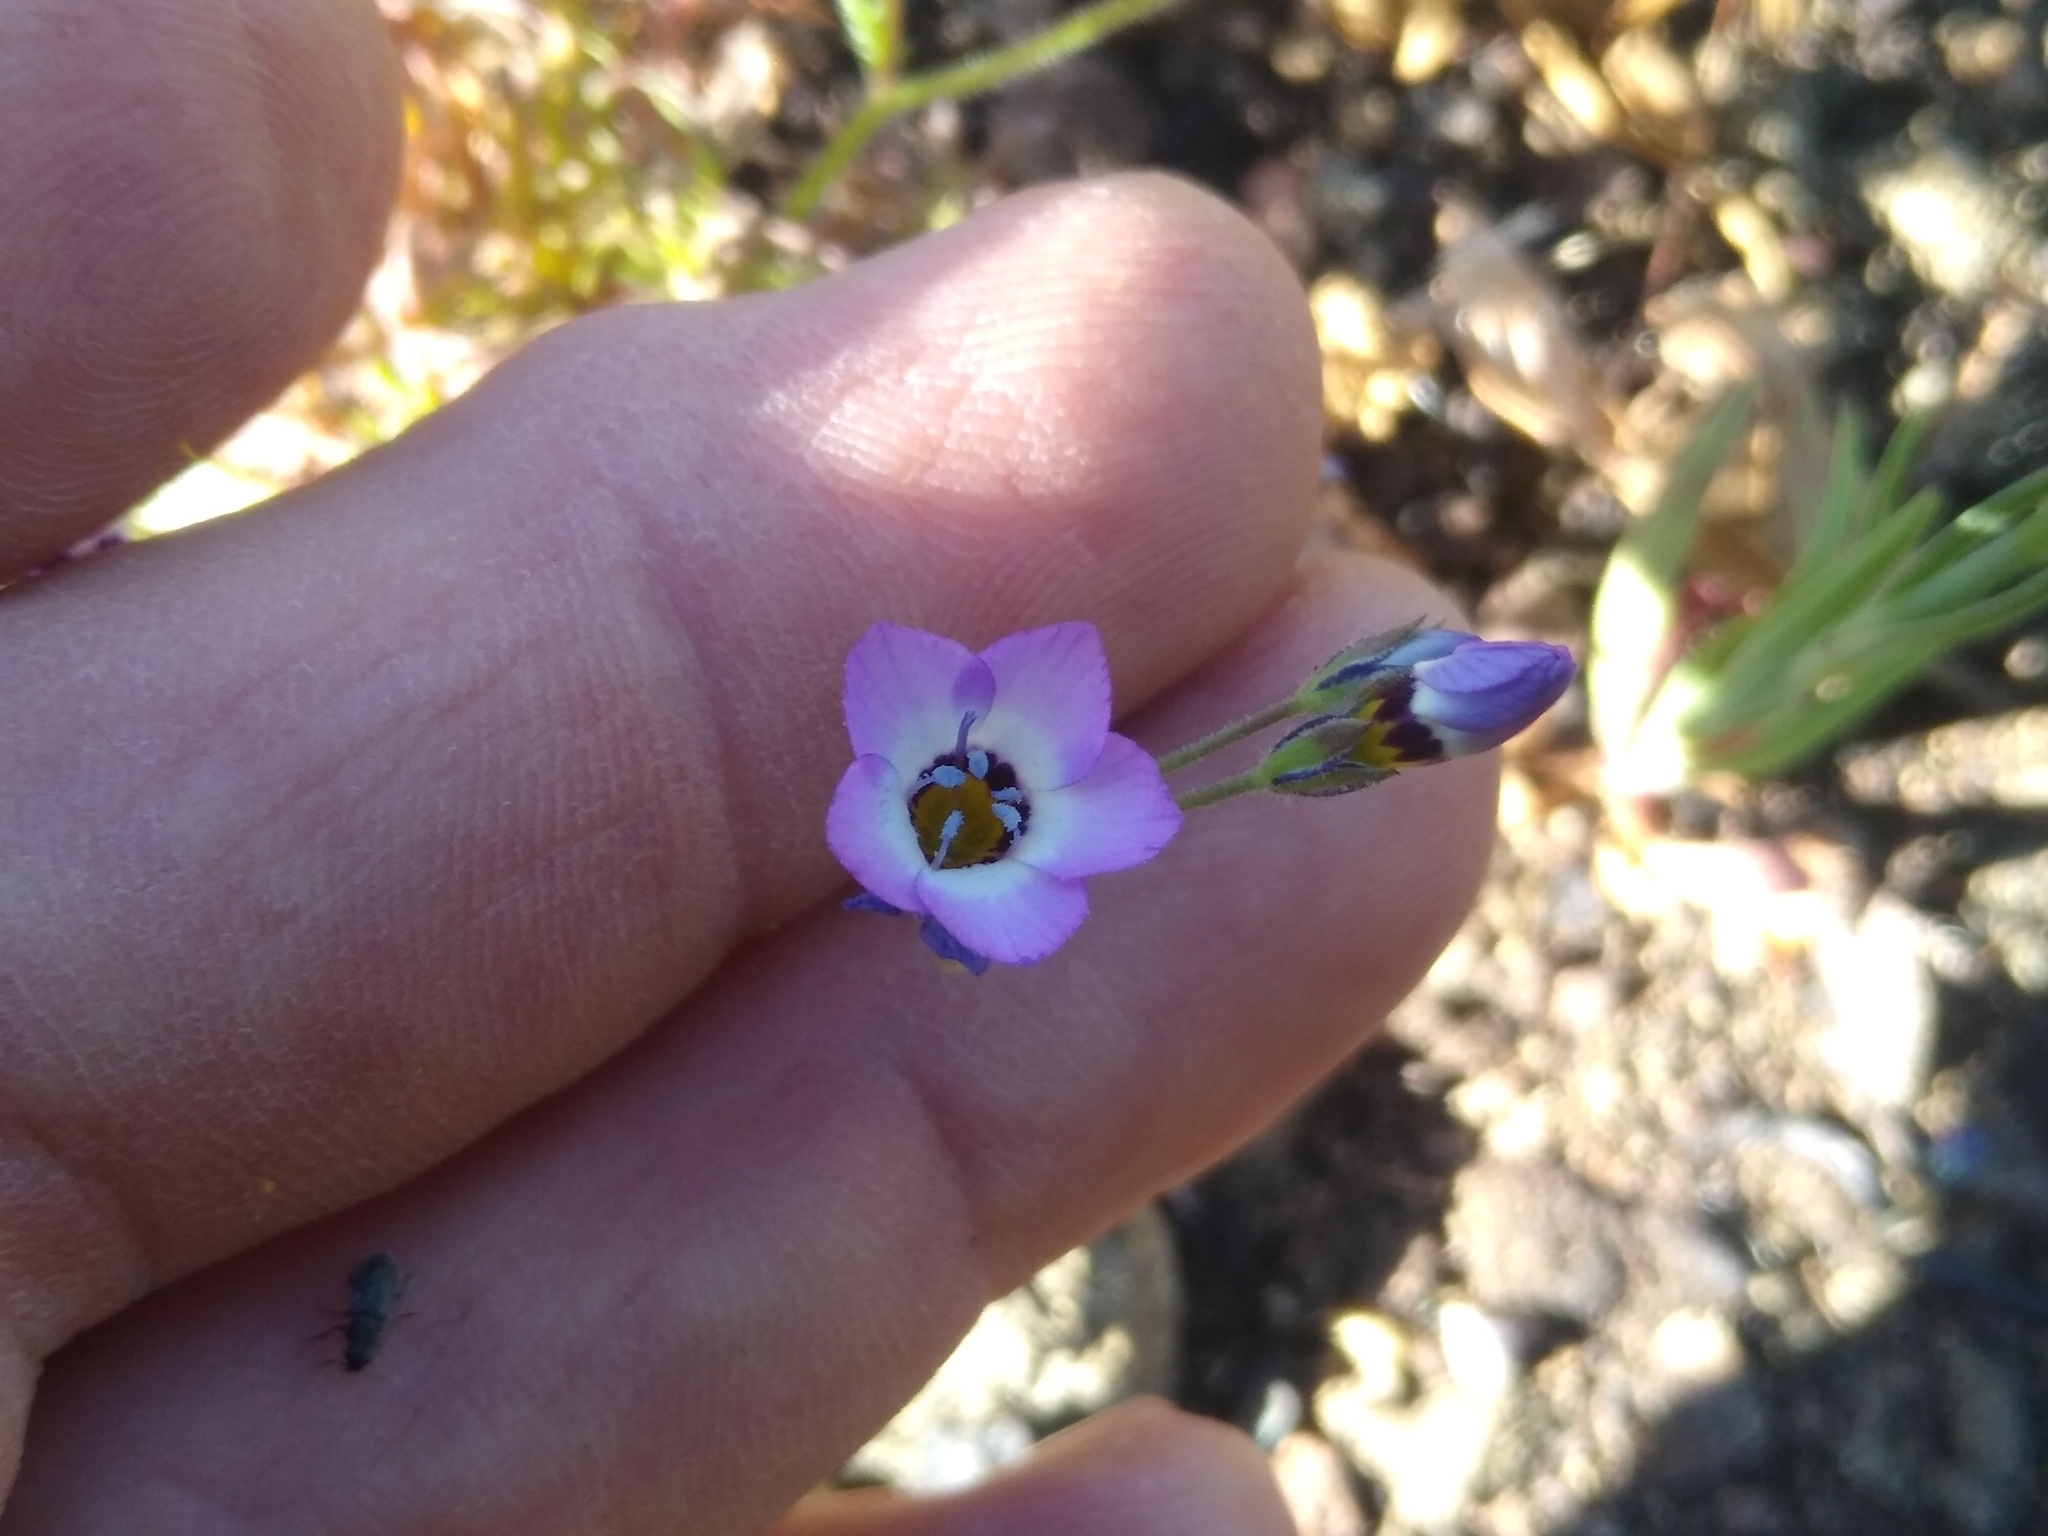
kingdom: Plantae
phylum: Tracheophyta
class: Magnoliopsida
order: Ericales
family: Polemoniaceae
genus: Gilia
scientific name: Gilia tricolor
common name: Bird's-eyes
